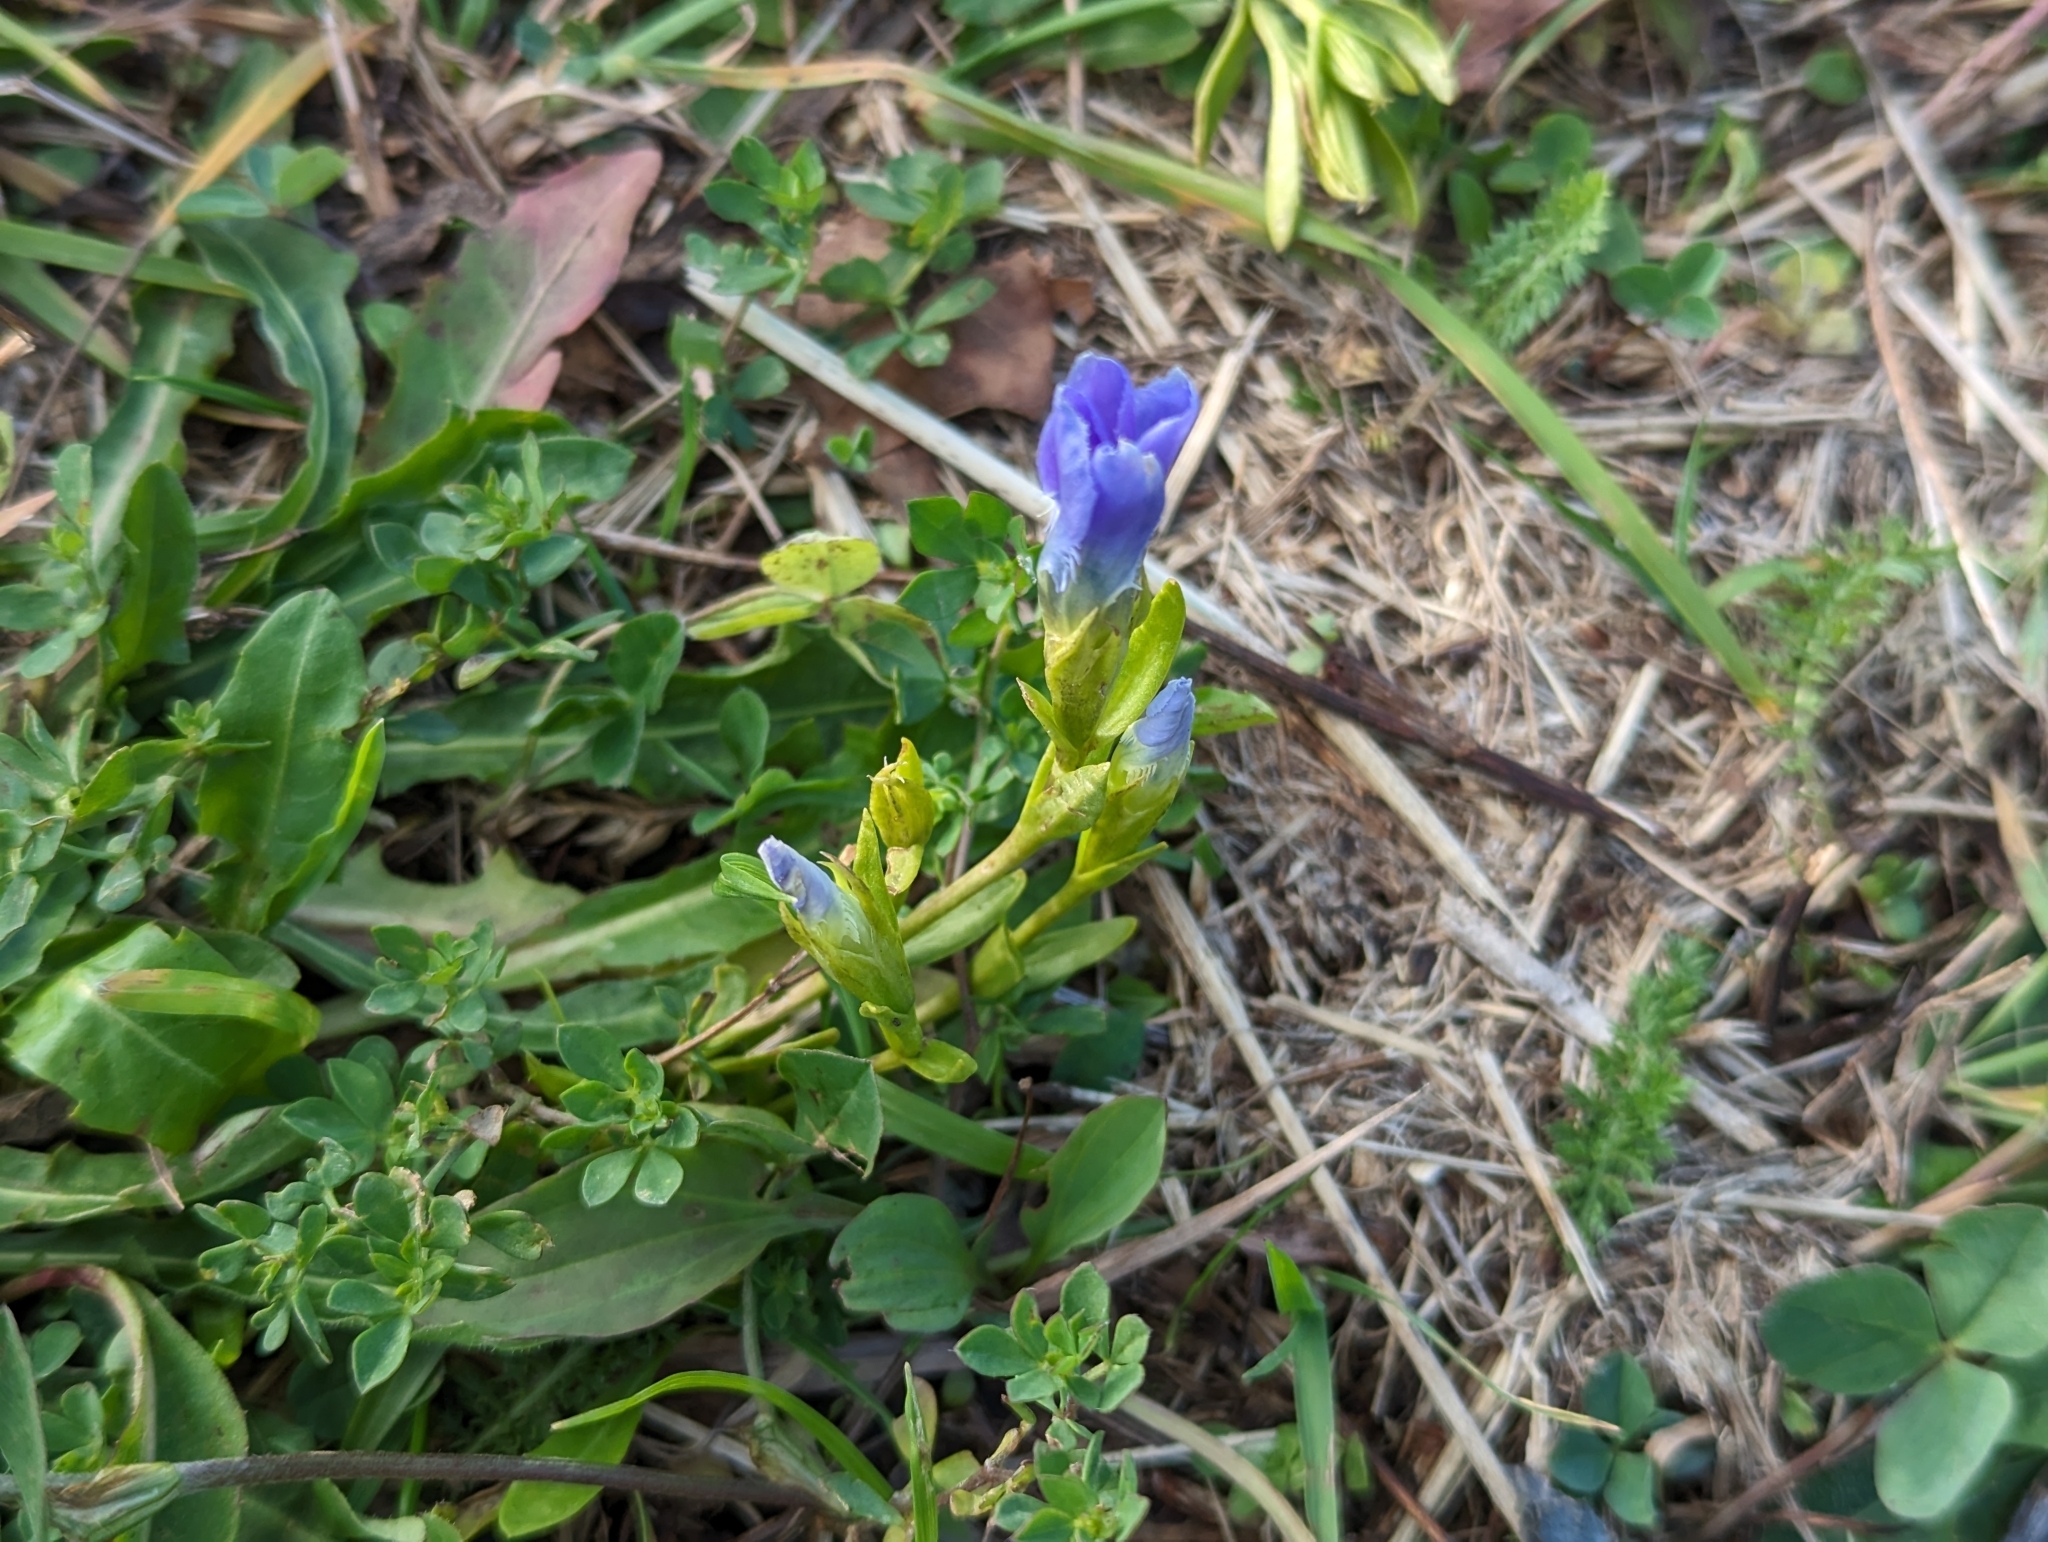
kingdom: Plantae
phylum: Tracheophyta
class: Magnoliopsida
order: Gentianales
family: Gentianaceae
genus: Gentianopsis
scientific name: Gentianopsis ciliata
